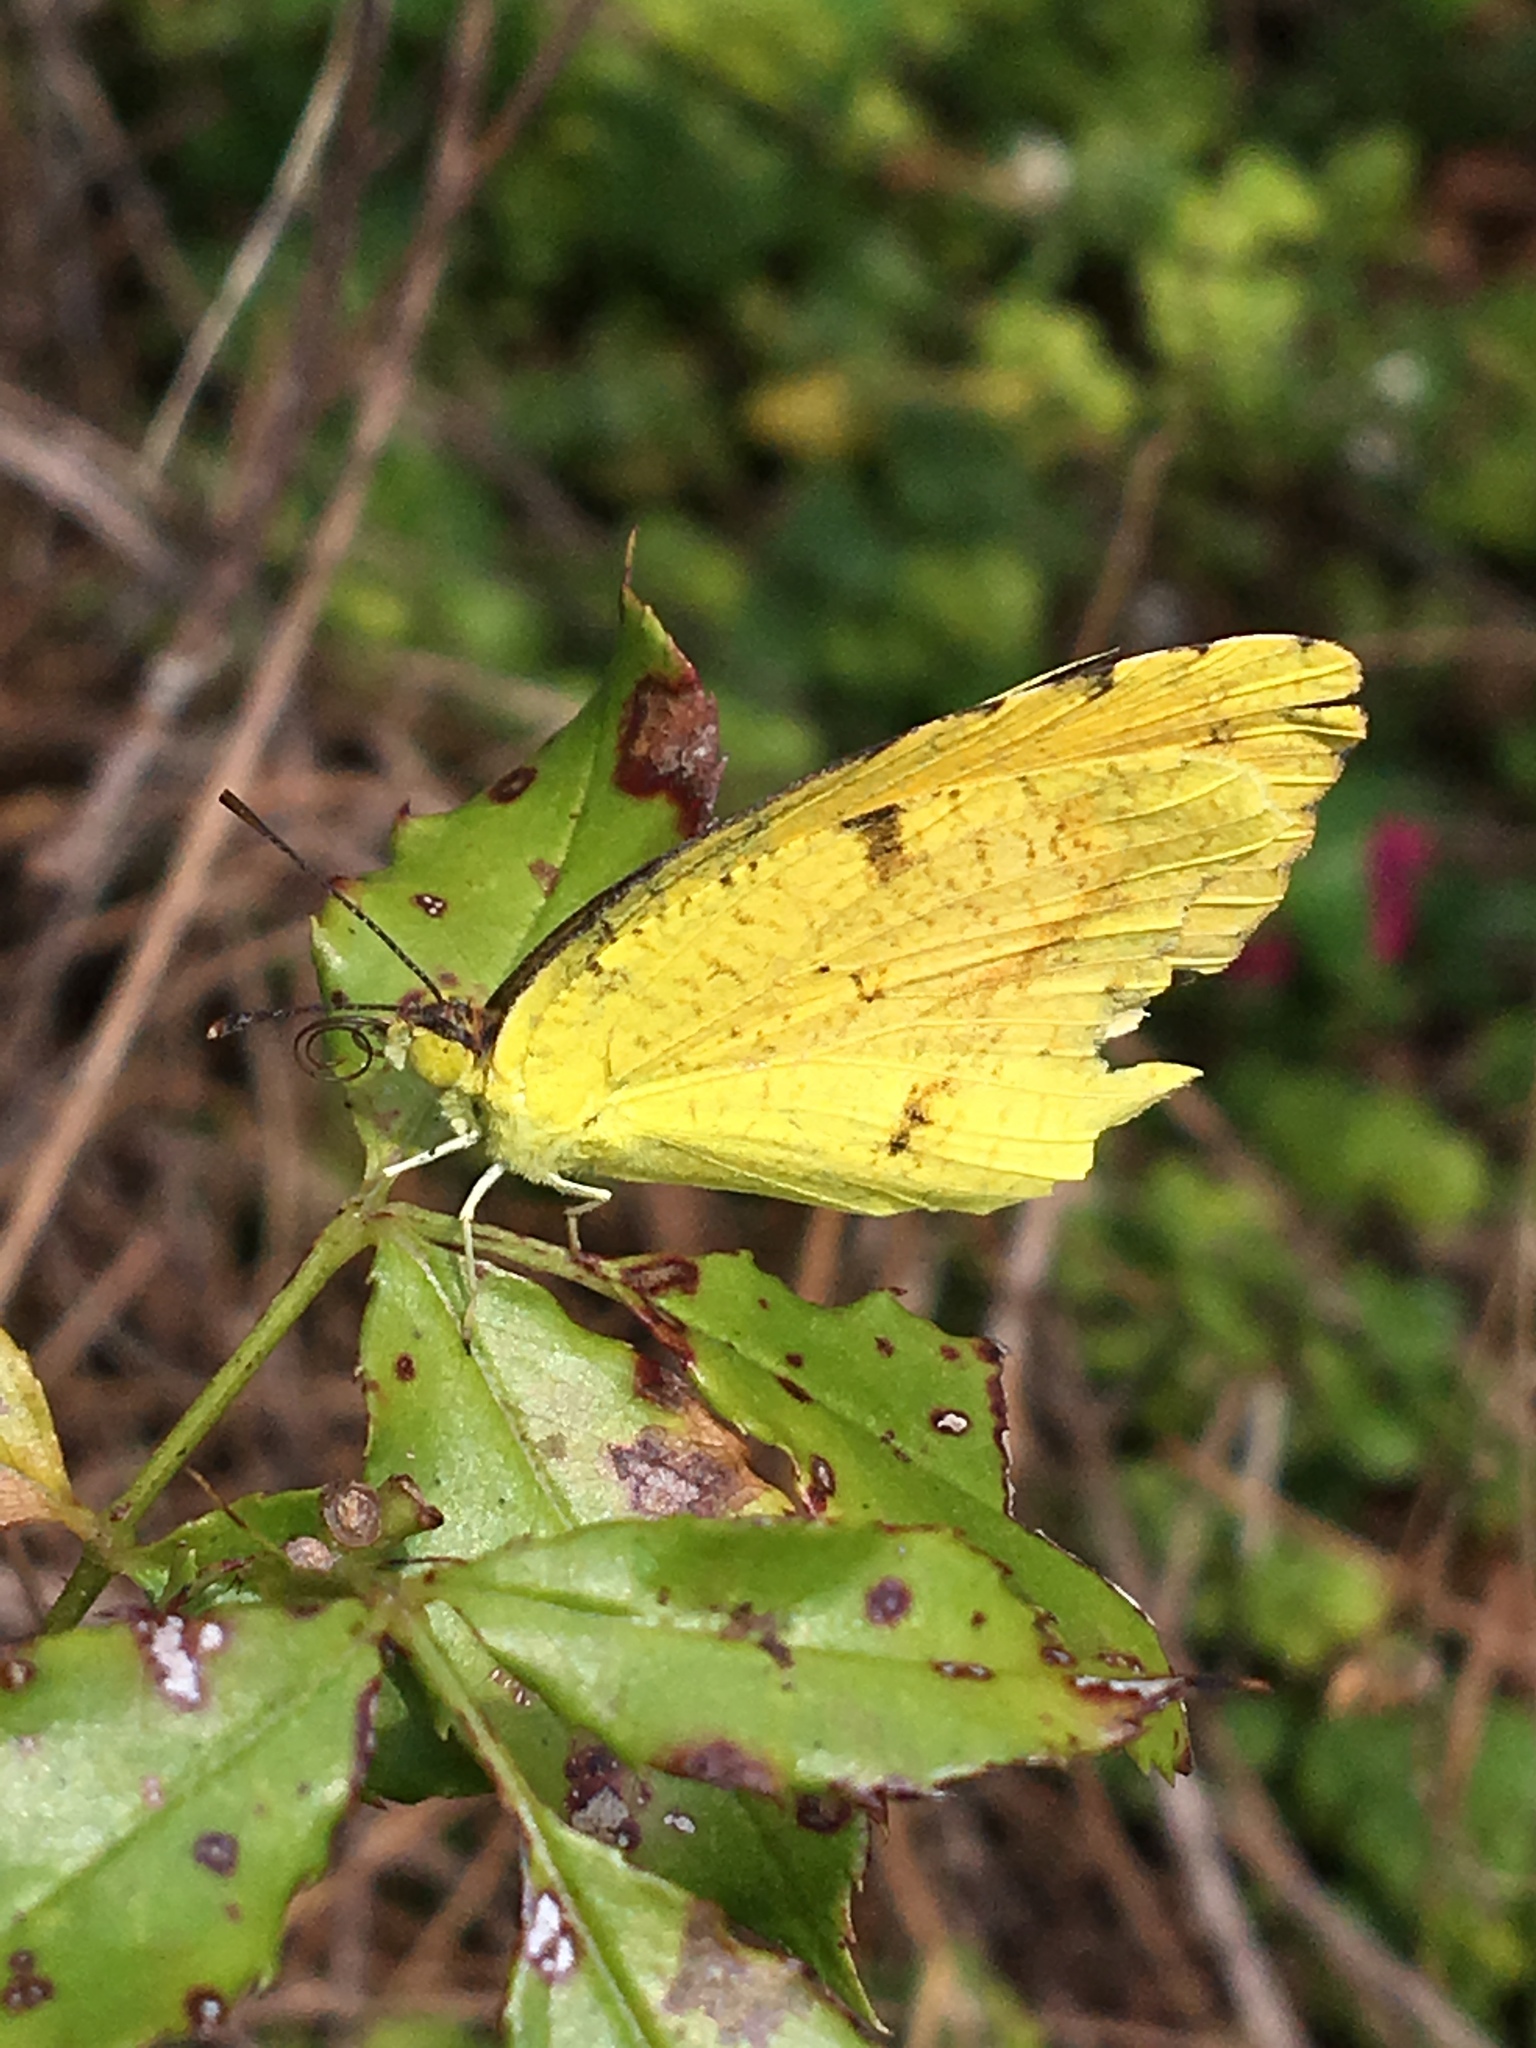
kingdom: Animalia
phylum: Arthropoda
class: Insecta
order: Lepidoptera
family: Pieridae
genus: Abaeis
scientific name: Abaeis nicippe
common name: Sleepy orange
